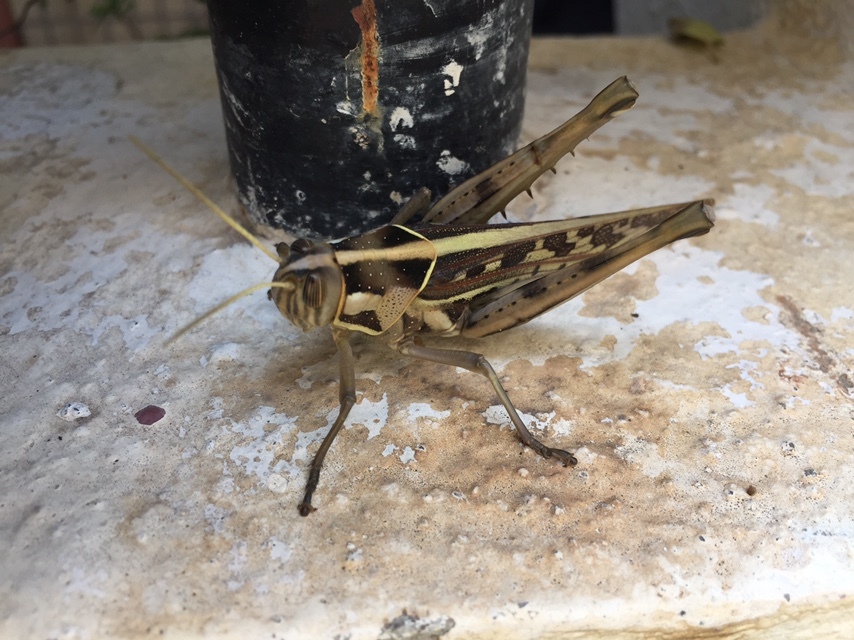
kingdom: Animalia
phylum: Arthropoda
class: Insecta
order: Orthoptera
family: Acrididae
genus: Cyrtacanthacris
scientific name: Cyrtacanthacris tatarica
